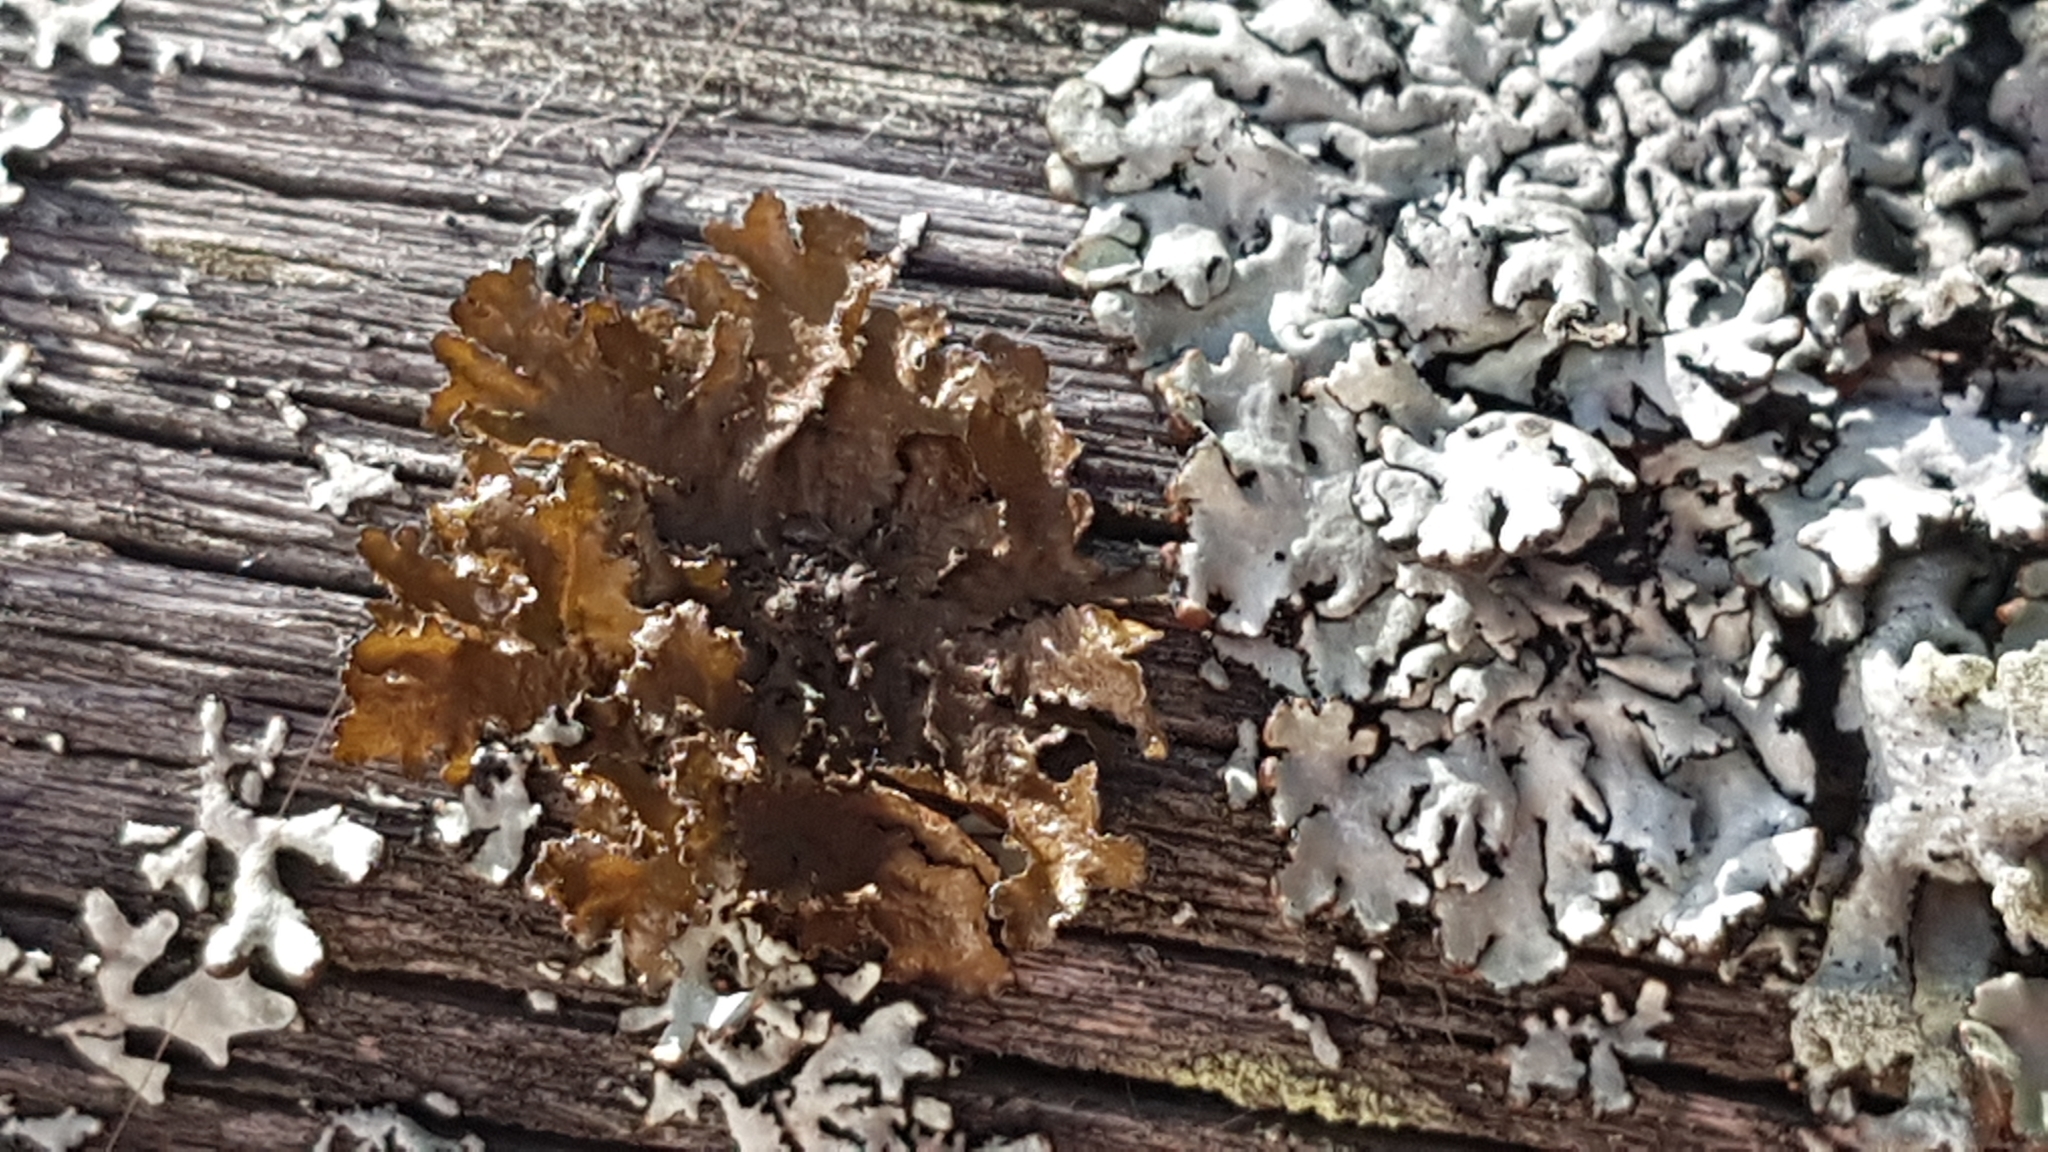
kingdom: Fungi
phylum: Ascomycota
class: Lecanoromycetes
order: Lecanorales
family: Parmeliaceae
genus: Nephromopsis
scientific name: Nephromopsis chlorophylla
